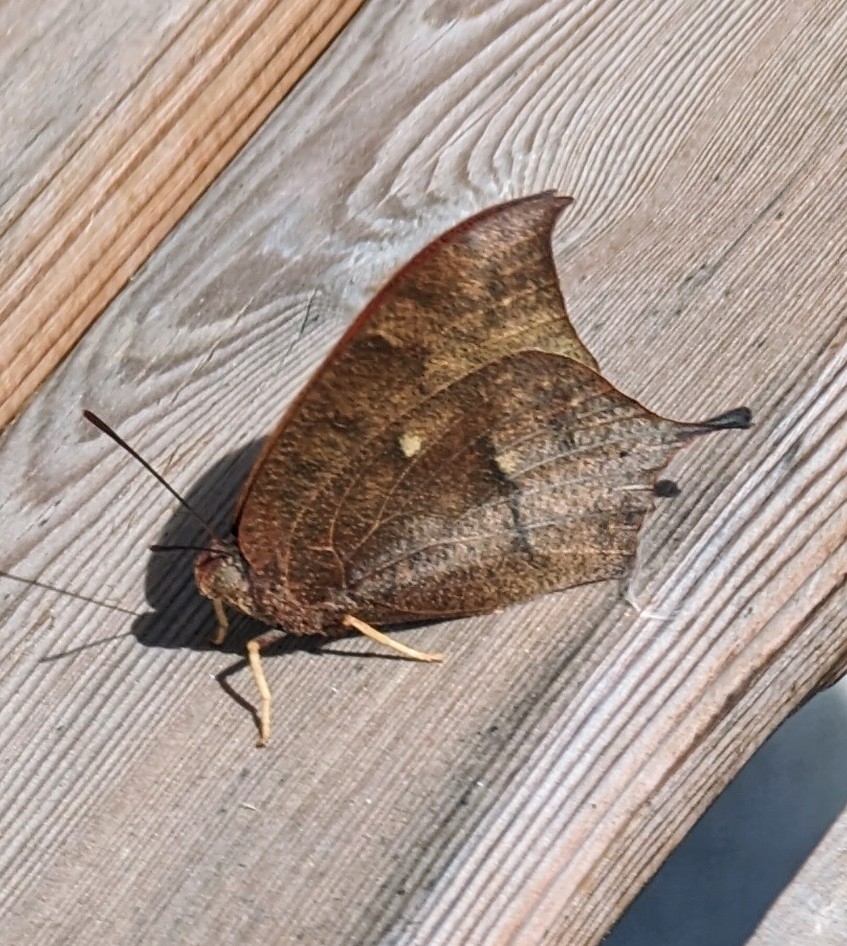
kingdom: Animalia
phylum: Arthropoda
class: Insecta
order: Lepidoptera
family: Nymphalidae
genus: Anaea
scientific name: Anaea andria
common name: Goatweed leafwing
